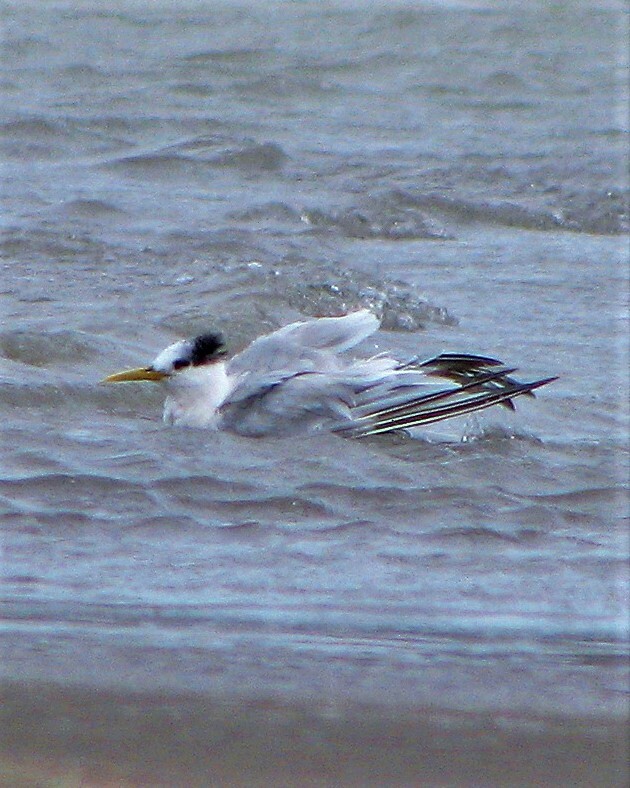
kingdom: Animalia
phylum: Chordata
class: Aves
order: Charadriiformes
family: Laridae
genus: Thalasseus
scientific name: Thalasseus sandvicensis
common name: Sandwich tern
